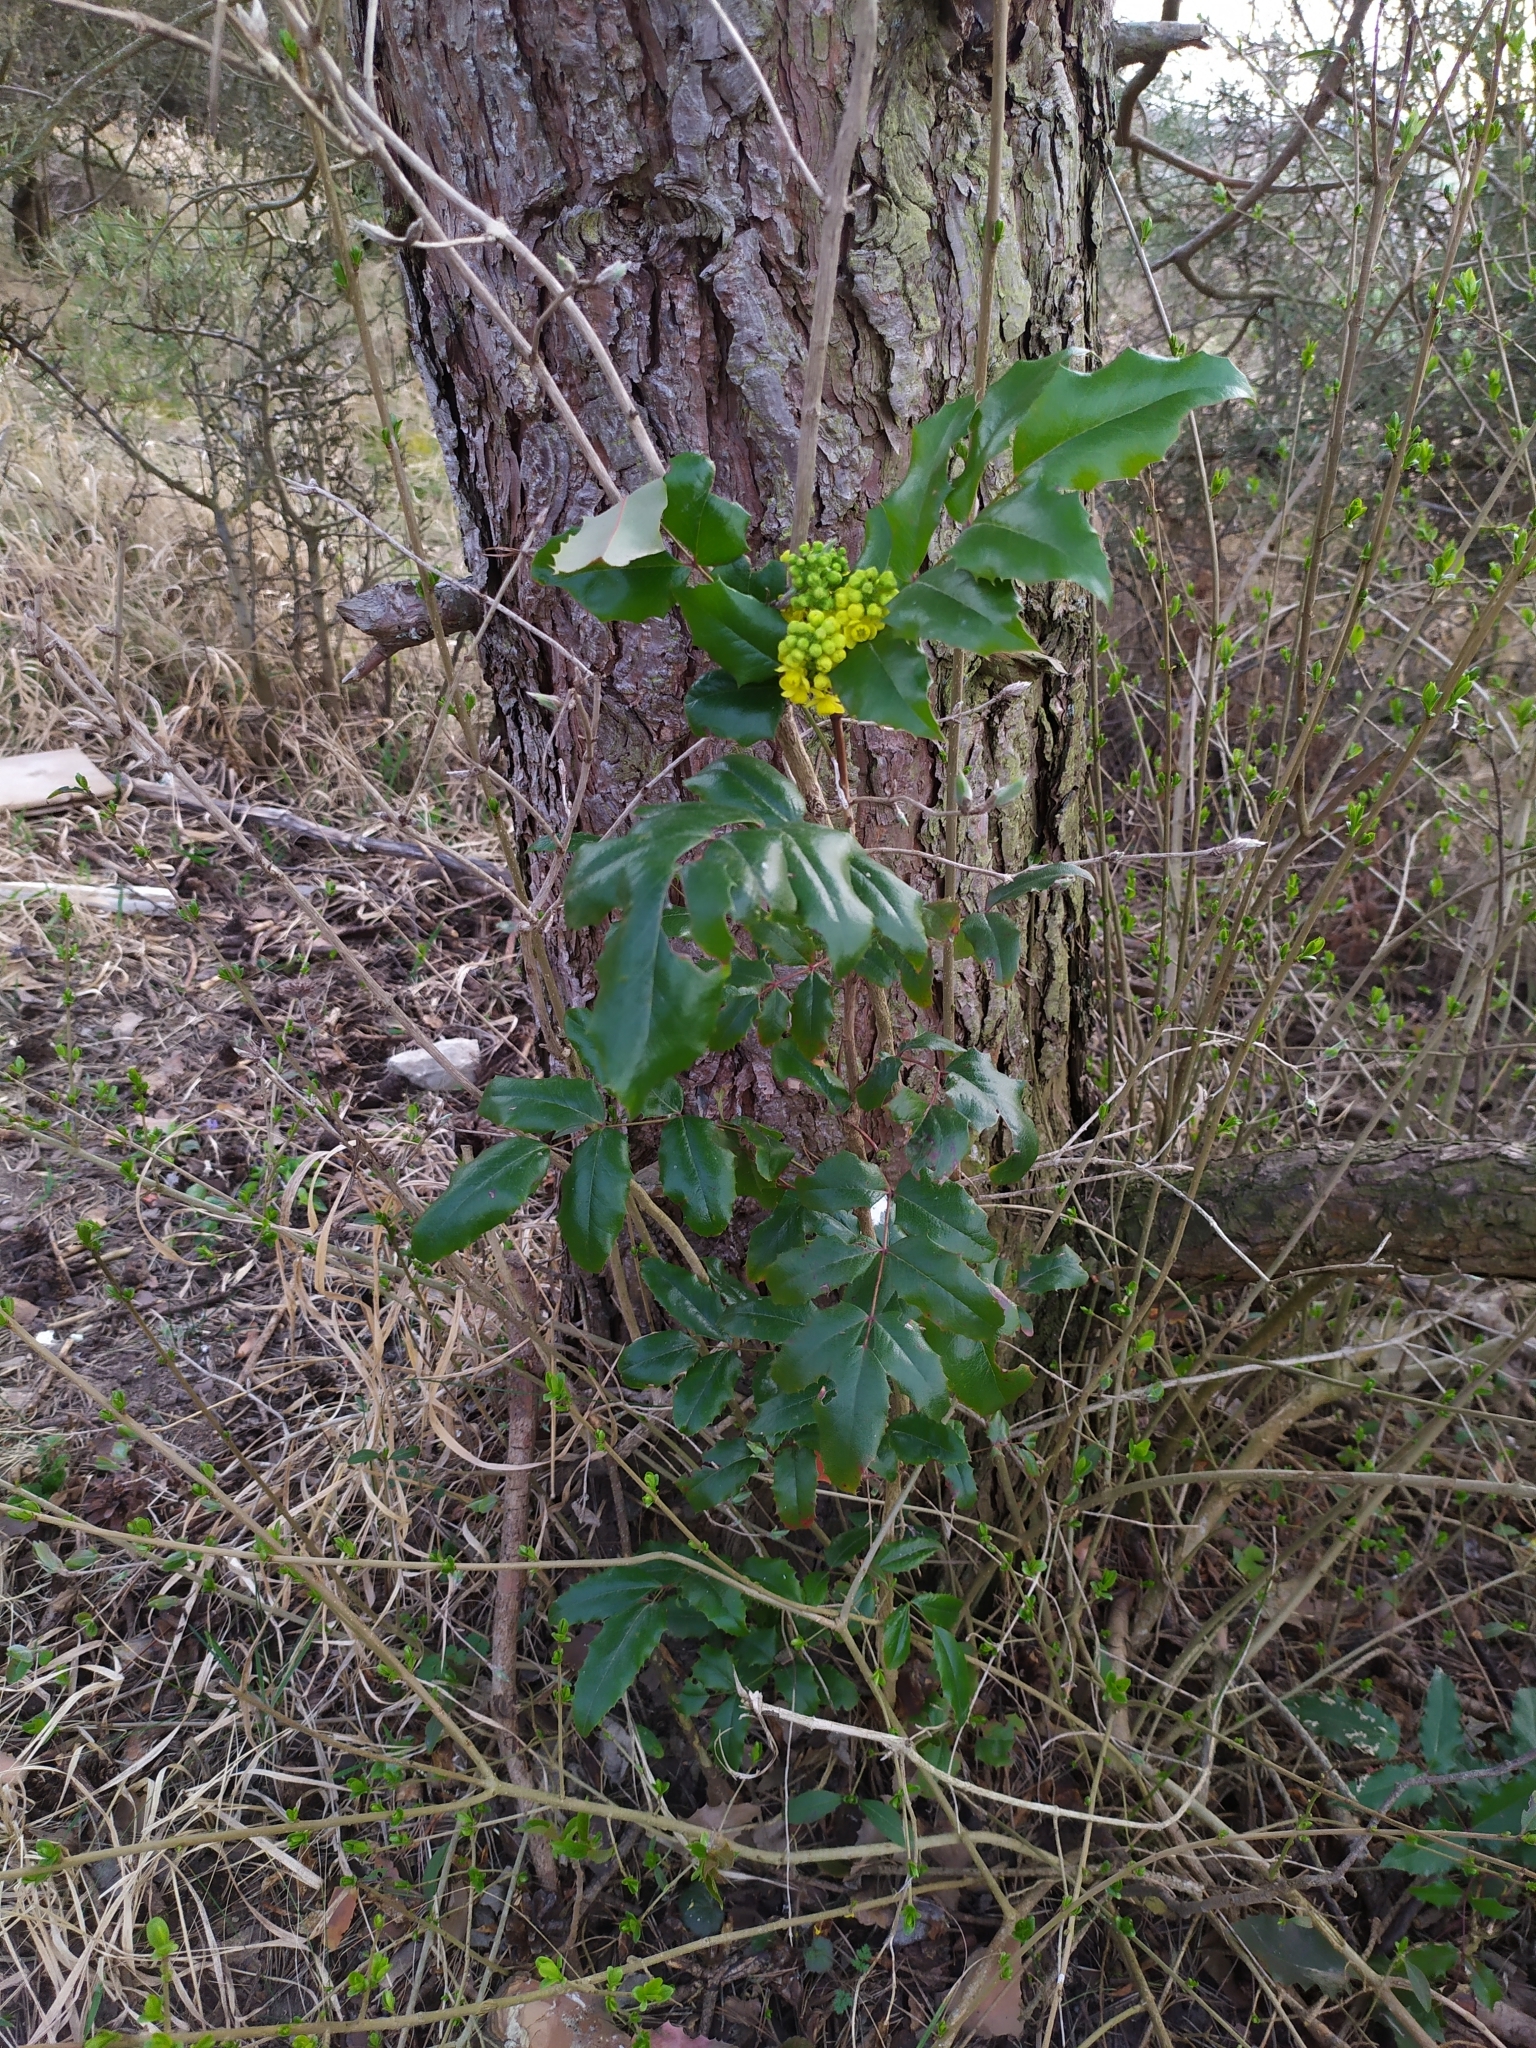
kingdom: Plantae
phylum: Tracheophyta
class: Magnoliopsida
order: Ranunculales
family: Berberidaceae
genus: Mahonia
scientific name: Mahonia aquifolium
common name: Oregon-grape
